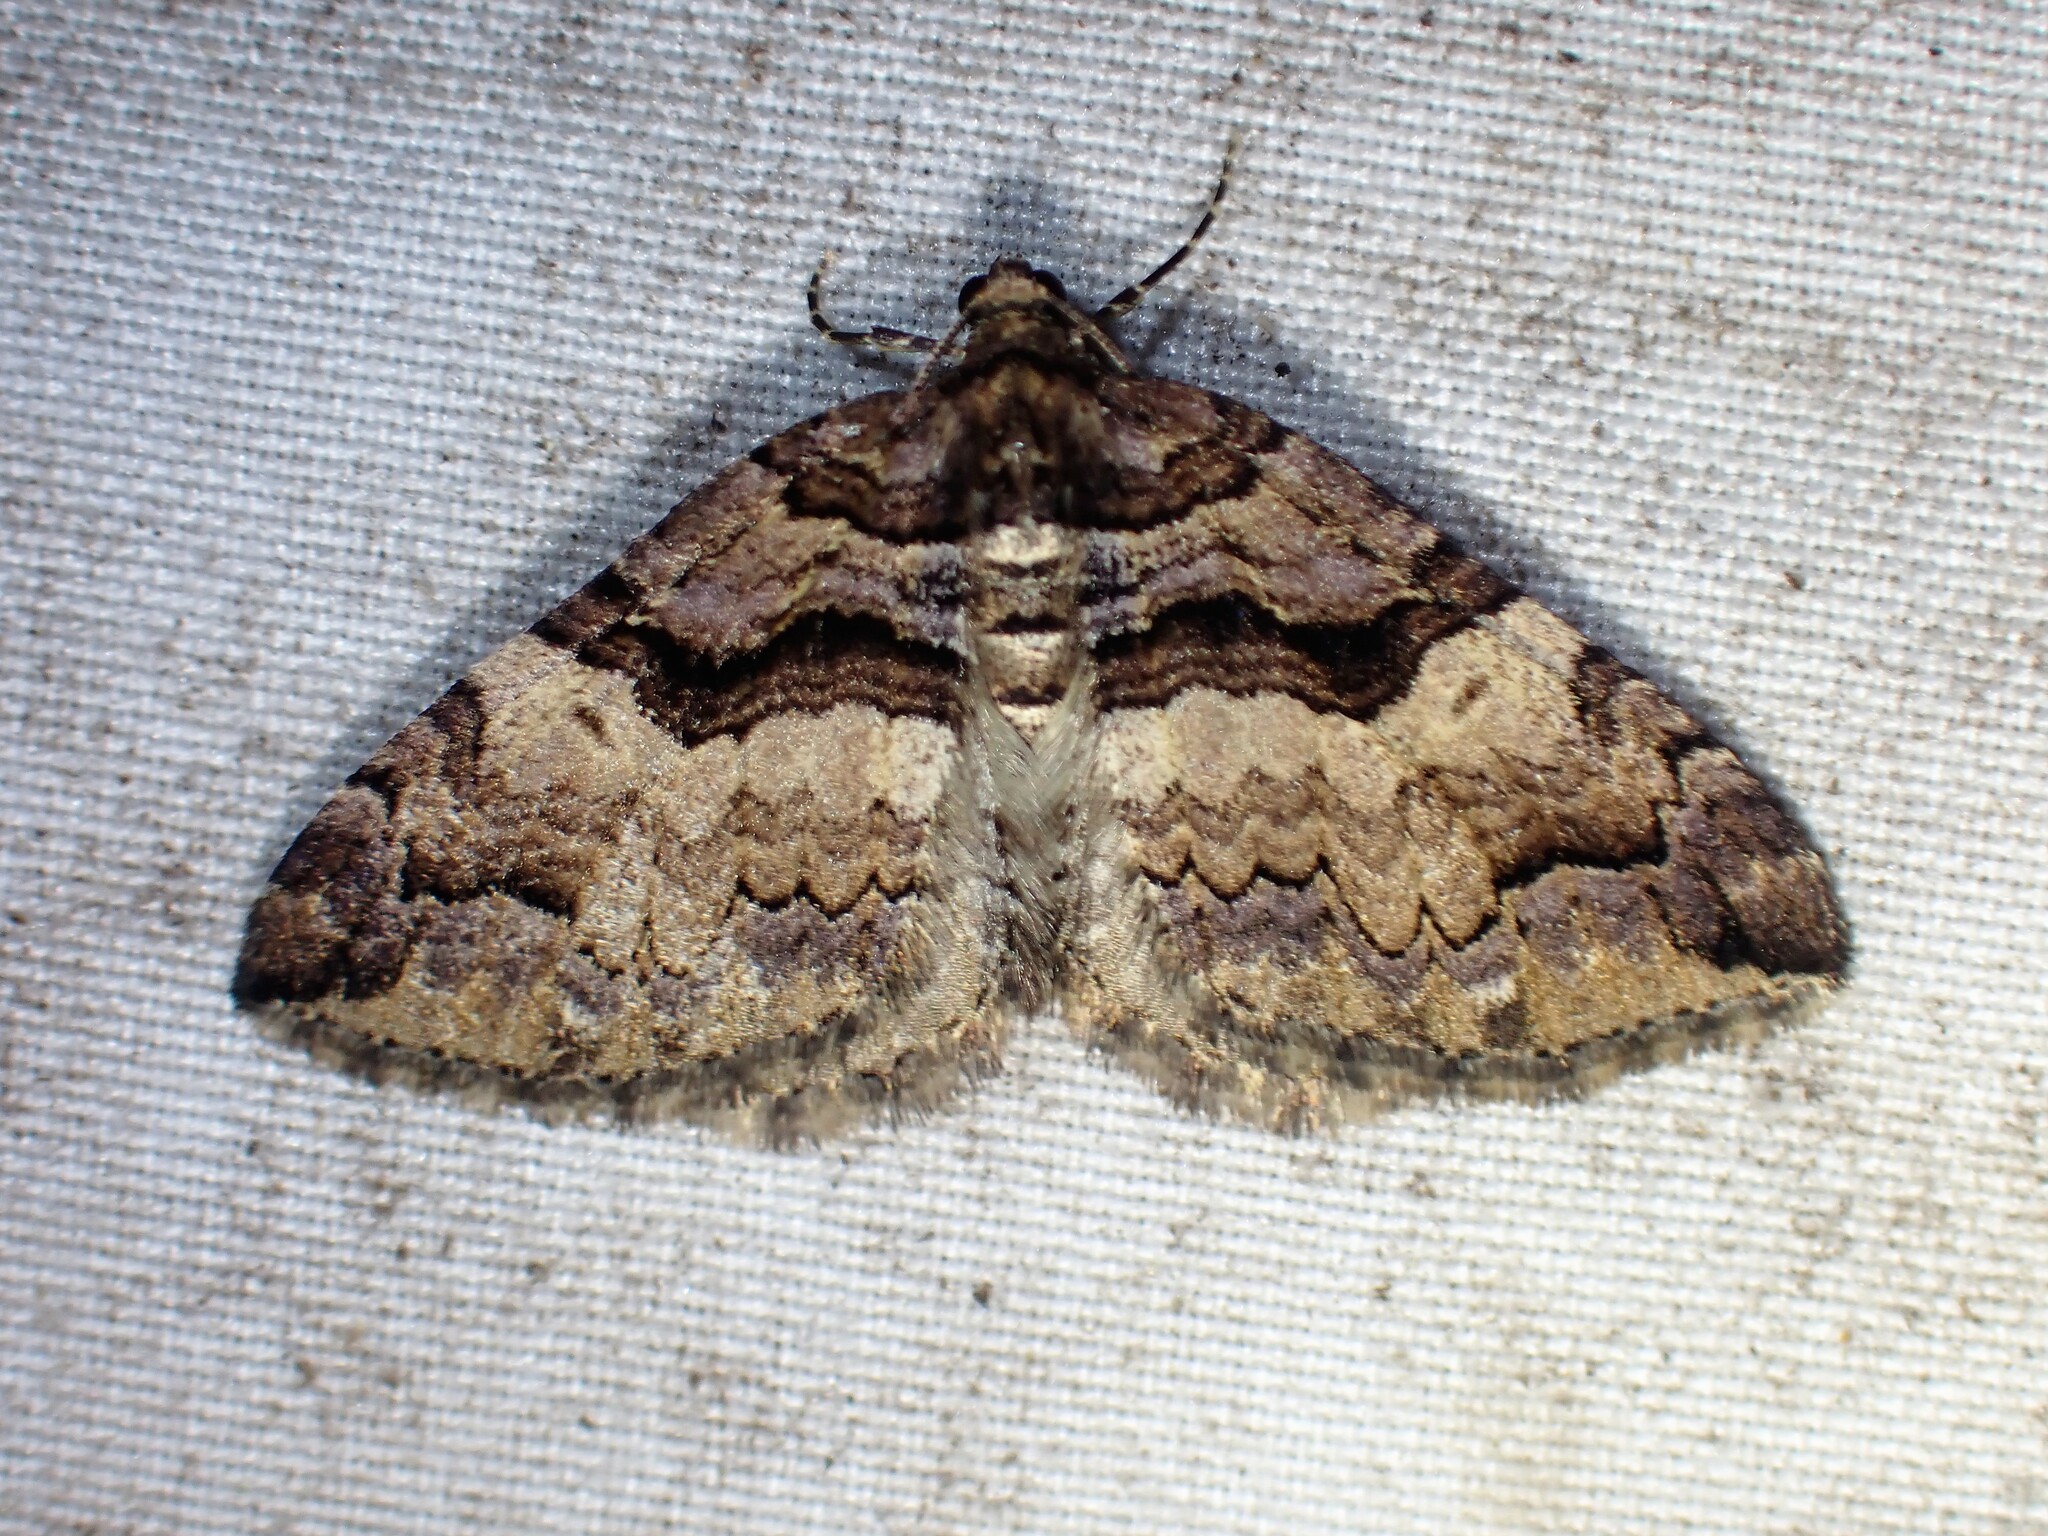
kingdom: Animalia
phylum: Arthropoda
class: Insecta
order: Lepidoptera
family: Geometridae
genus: Anticlea
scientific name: Anticlea vasiliata
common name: Variable carpet
